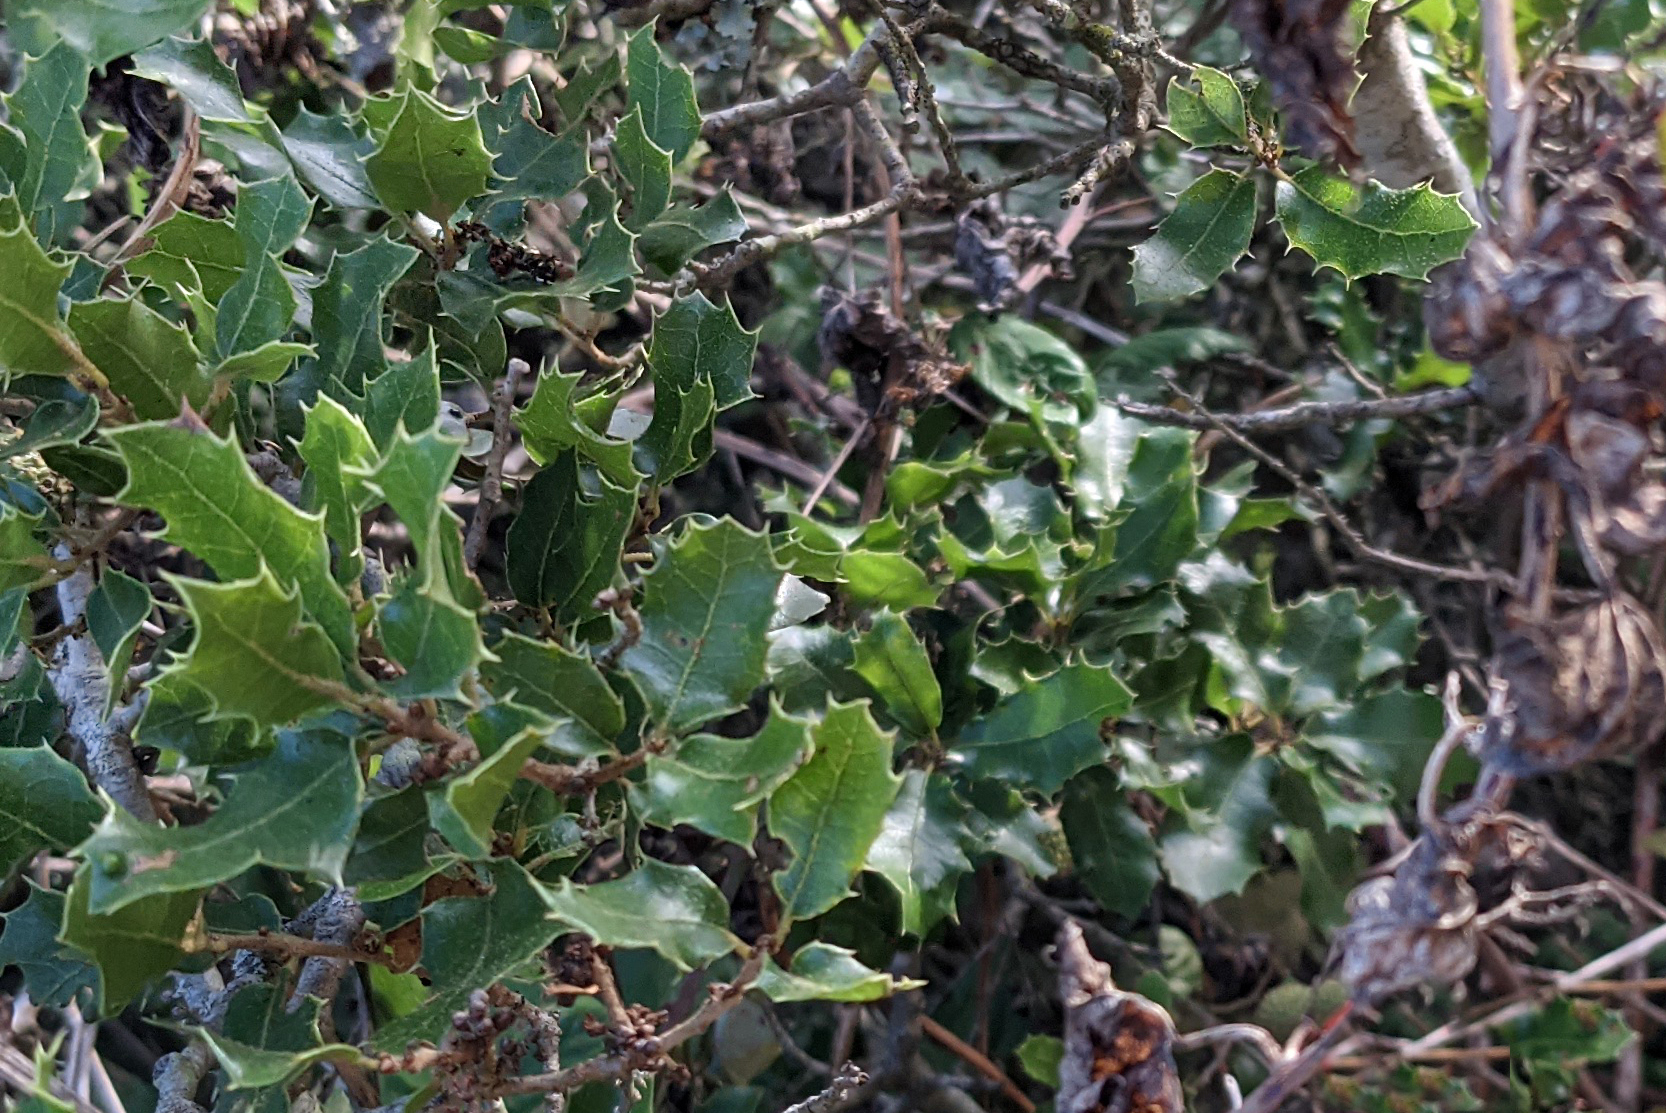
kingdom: Plantae
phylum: Tracheophyta
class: Magnoliopsida
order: Fagales
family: Fagaceae
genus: Quercus
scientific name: Quercus coccifera
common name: Kermes oak
